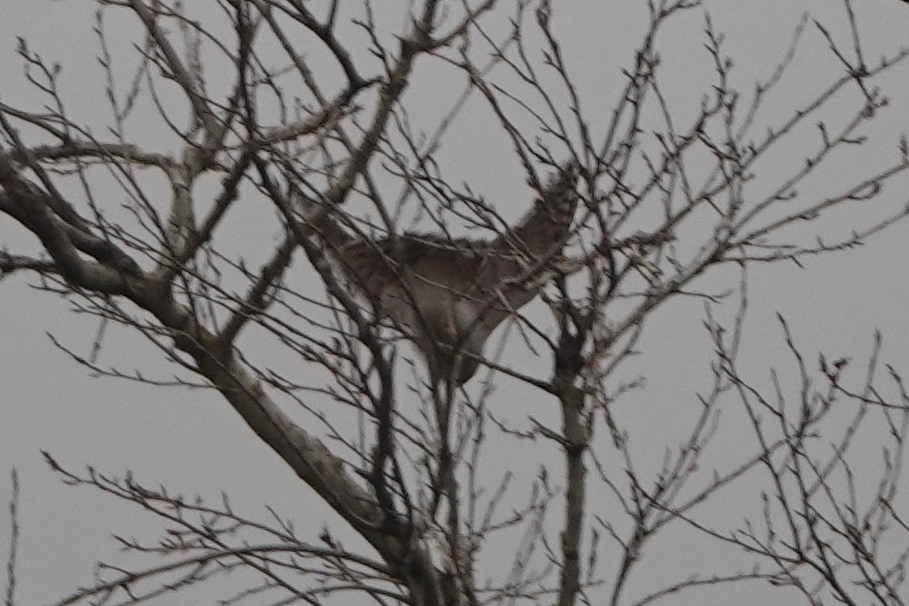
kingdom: Animalia
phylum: Chordata
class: Aves
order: Accipitriformes
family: Accipitridae
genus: Accipiter
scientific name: Accipiter gentilis
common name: Northern goshawk
